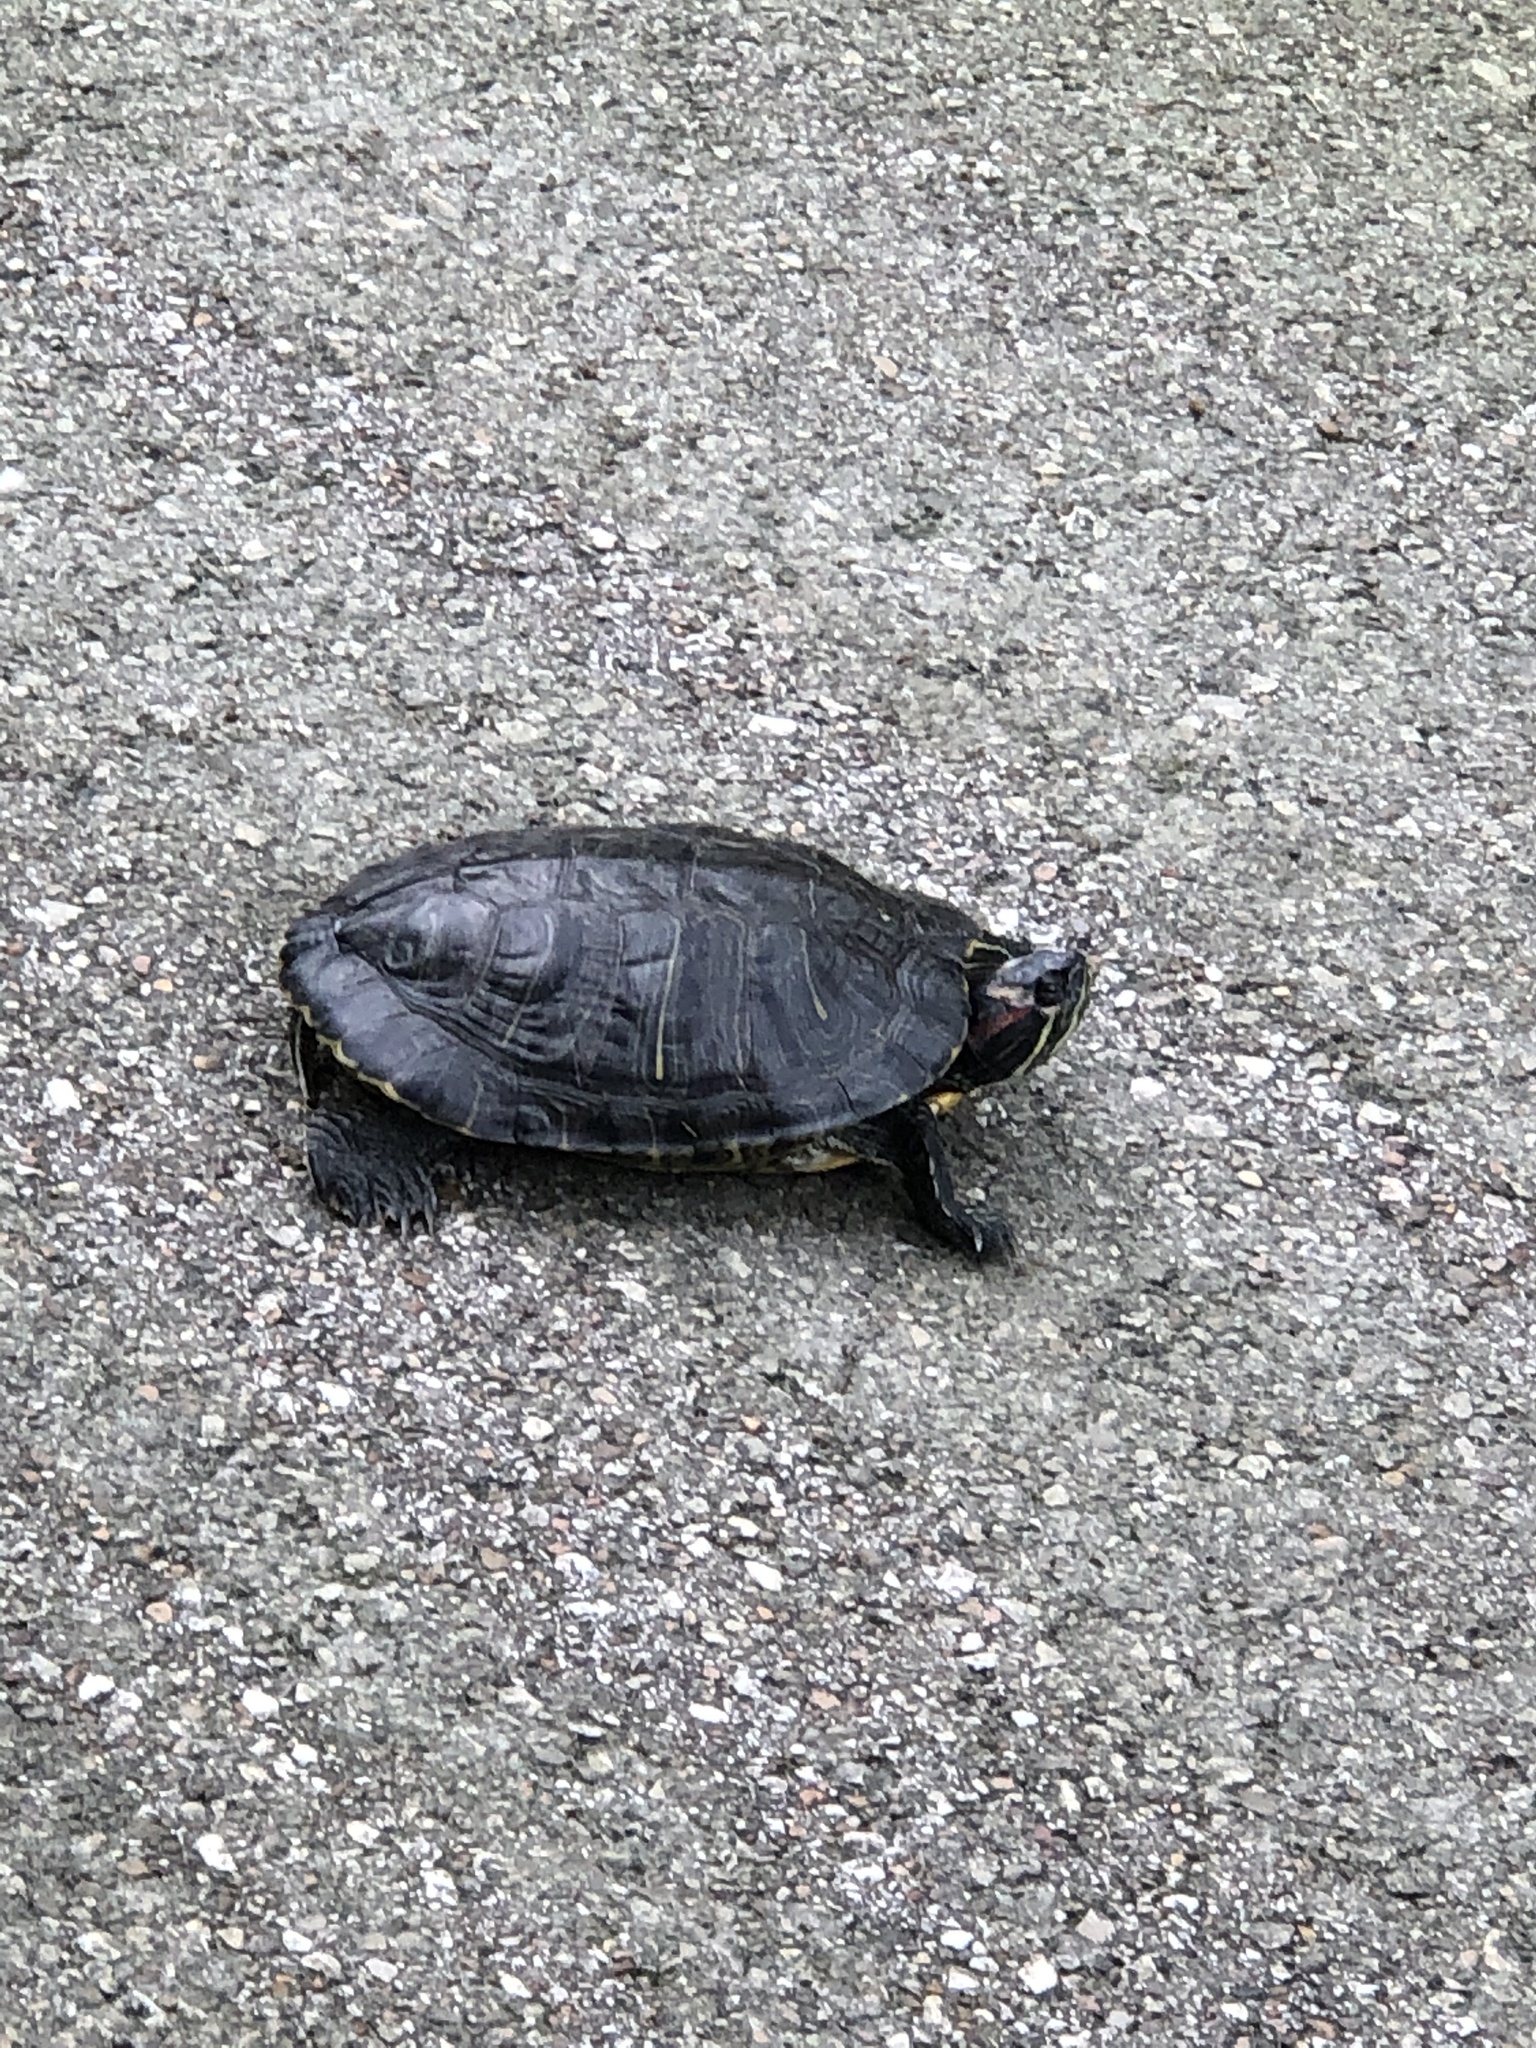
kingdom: Animalia
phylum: Chordata
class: Testudines
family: Emydidae
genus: Trachemys
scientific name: Trachemys scripta
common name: Slider
